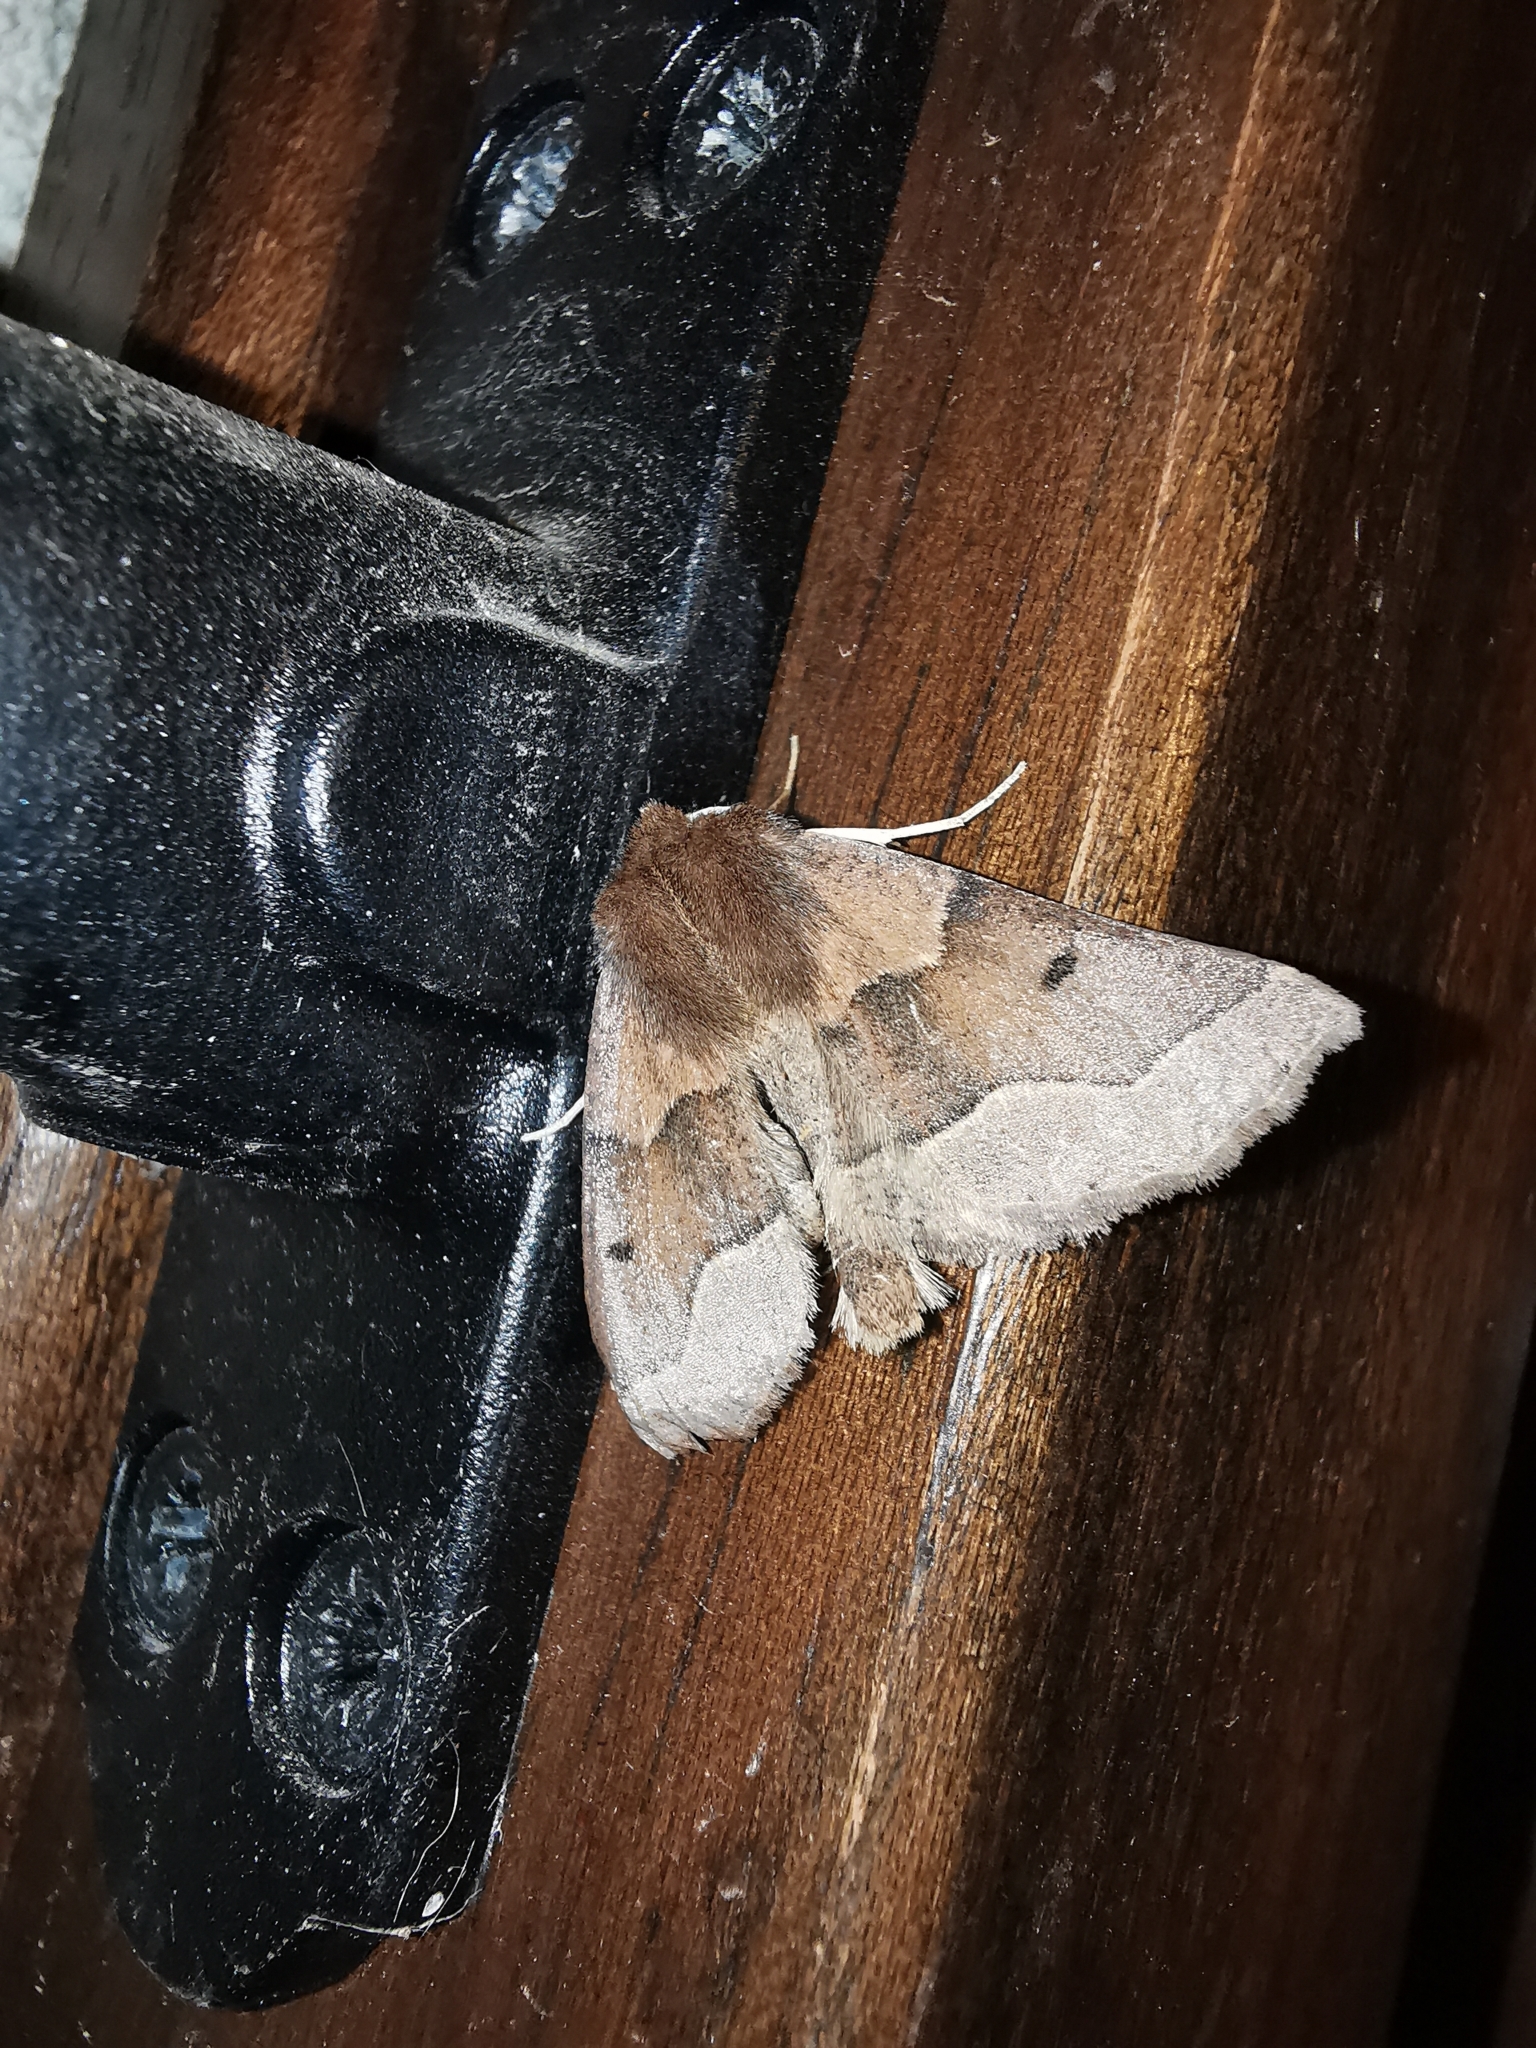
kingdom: Animalia
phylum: Arthropoda
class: Insecta
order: Lepidoptera
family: Geometridae
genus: Crocallis
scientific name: Crocallis tusciaria
